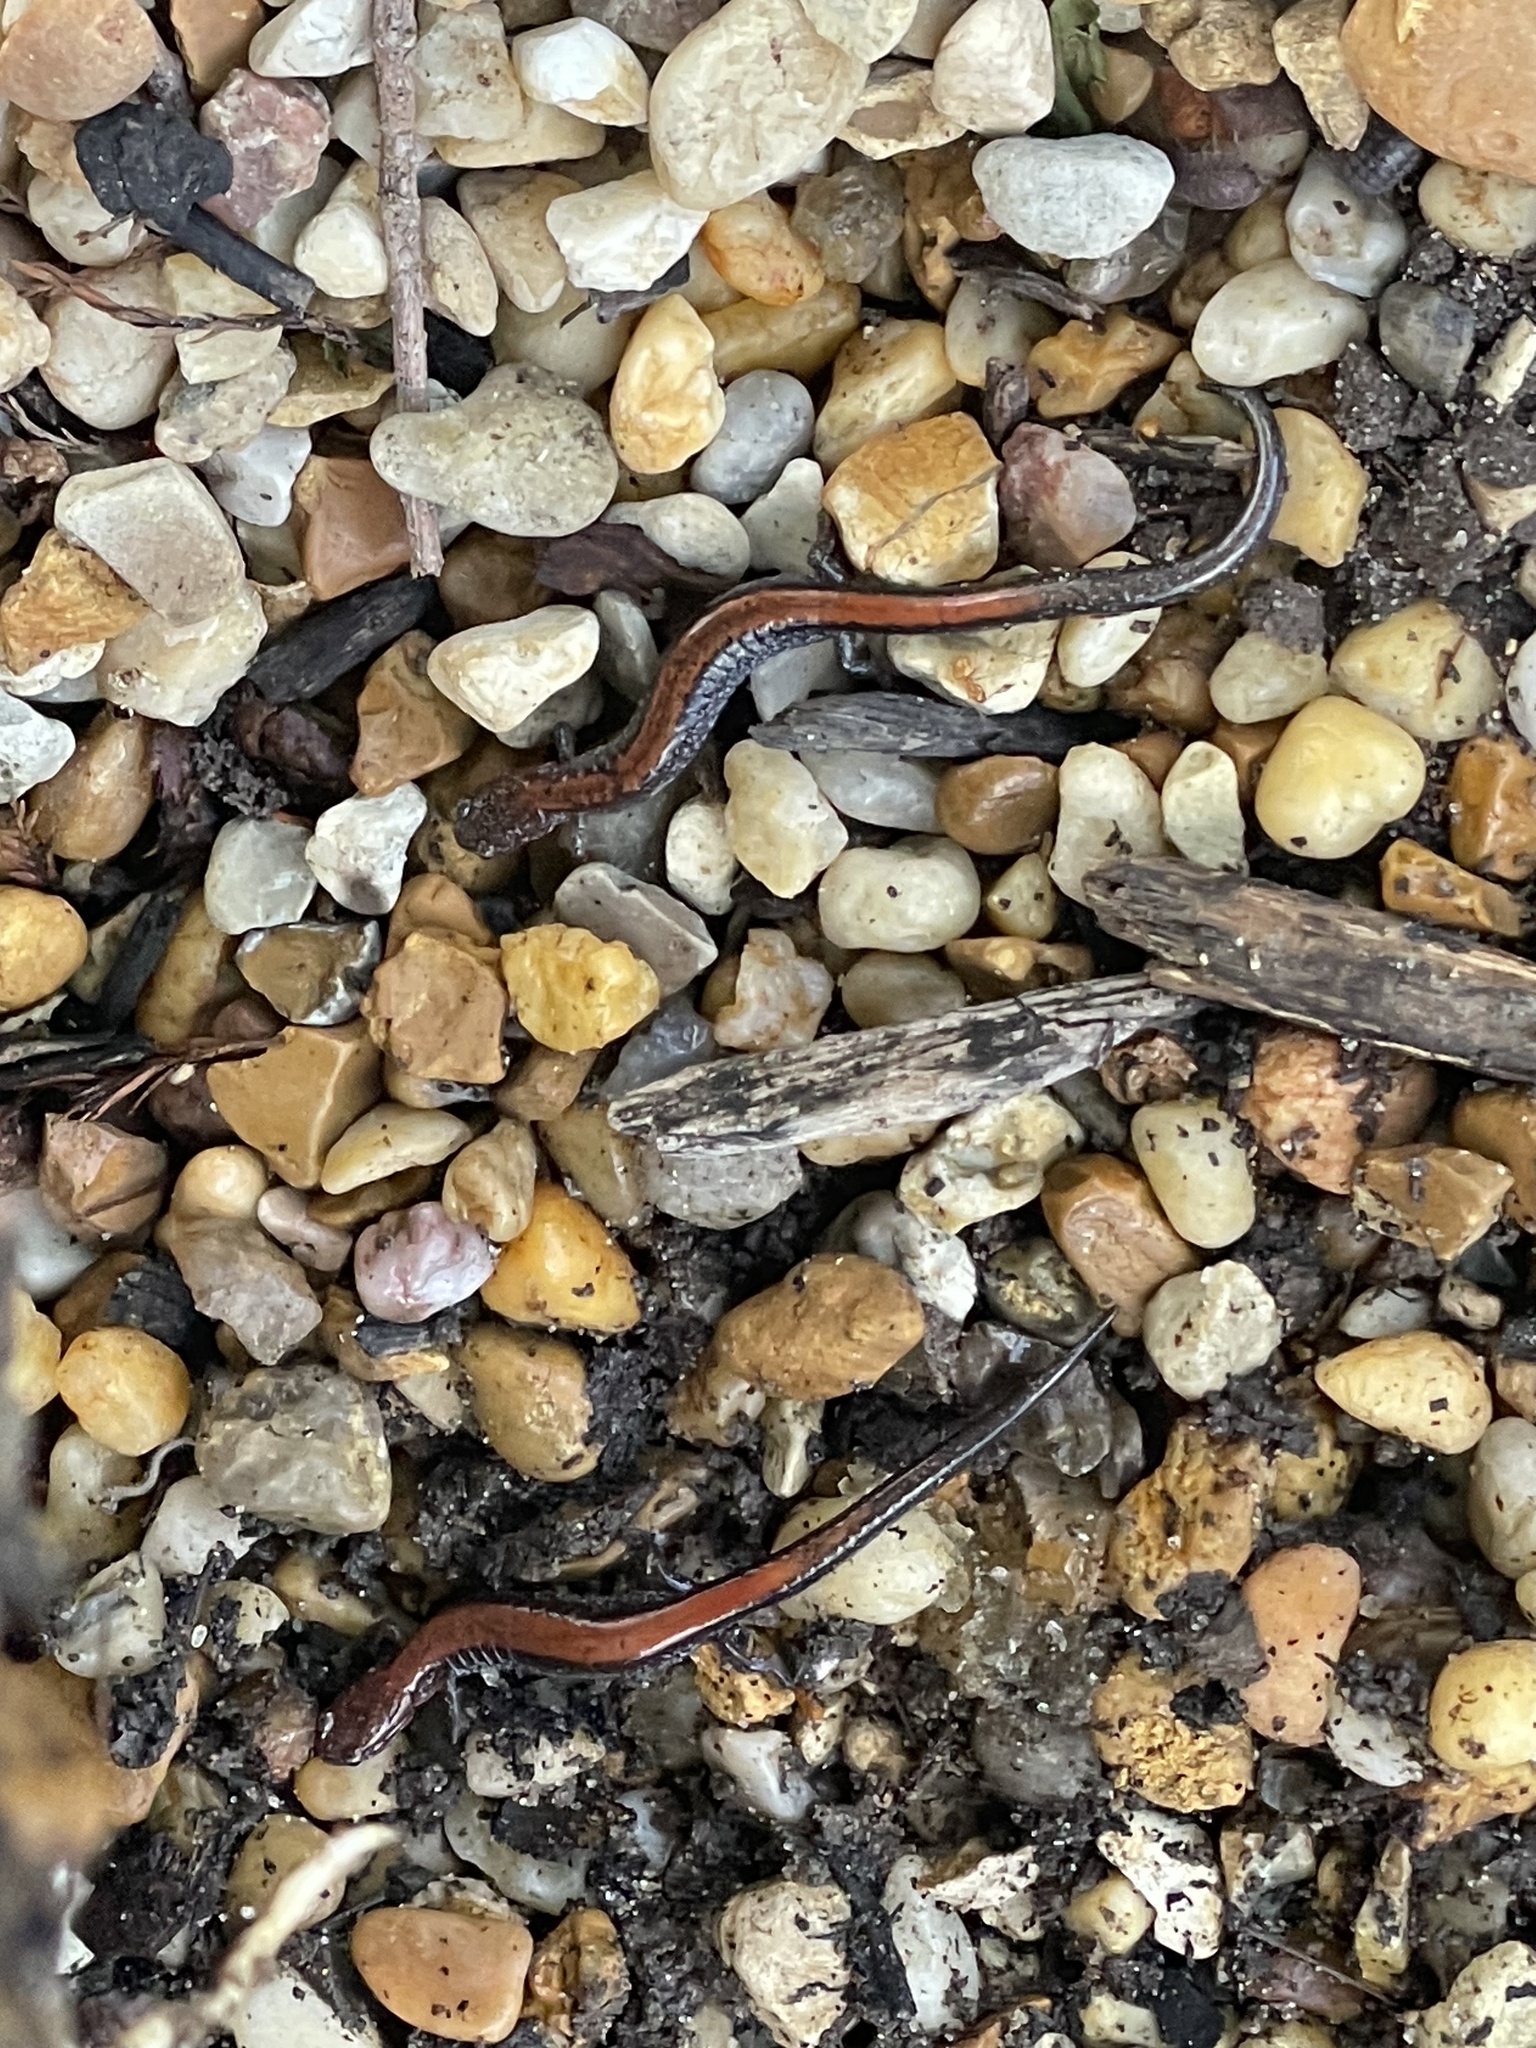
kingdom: Animalia
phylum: Chordata
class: Amphibia
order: Caudata
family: Plethodontidae
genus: Plethodon
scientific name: Plethodon cinereus
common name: Redback salamander
